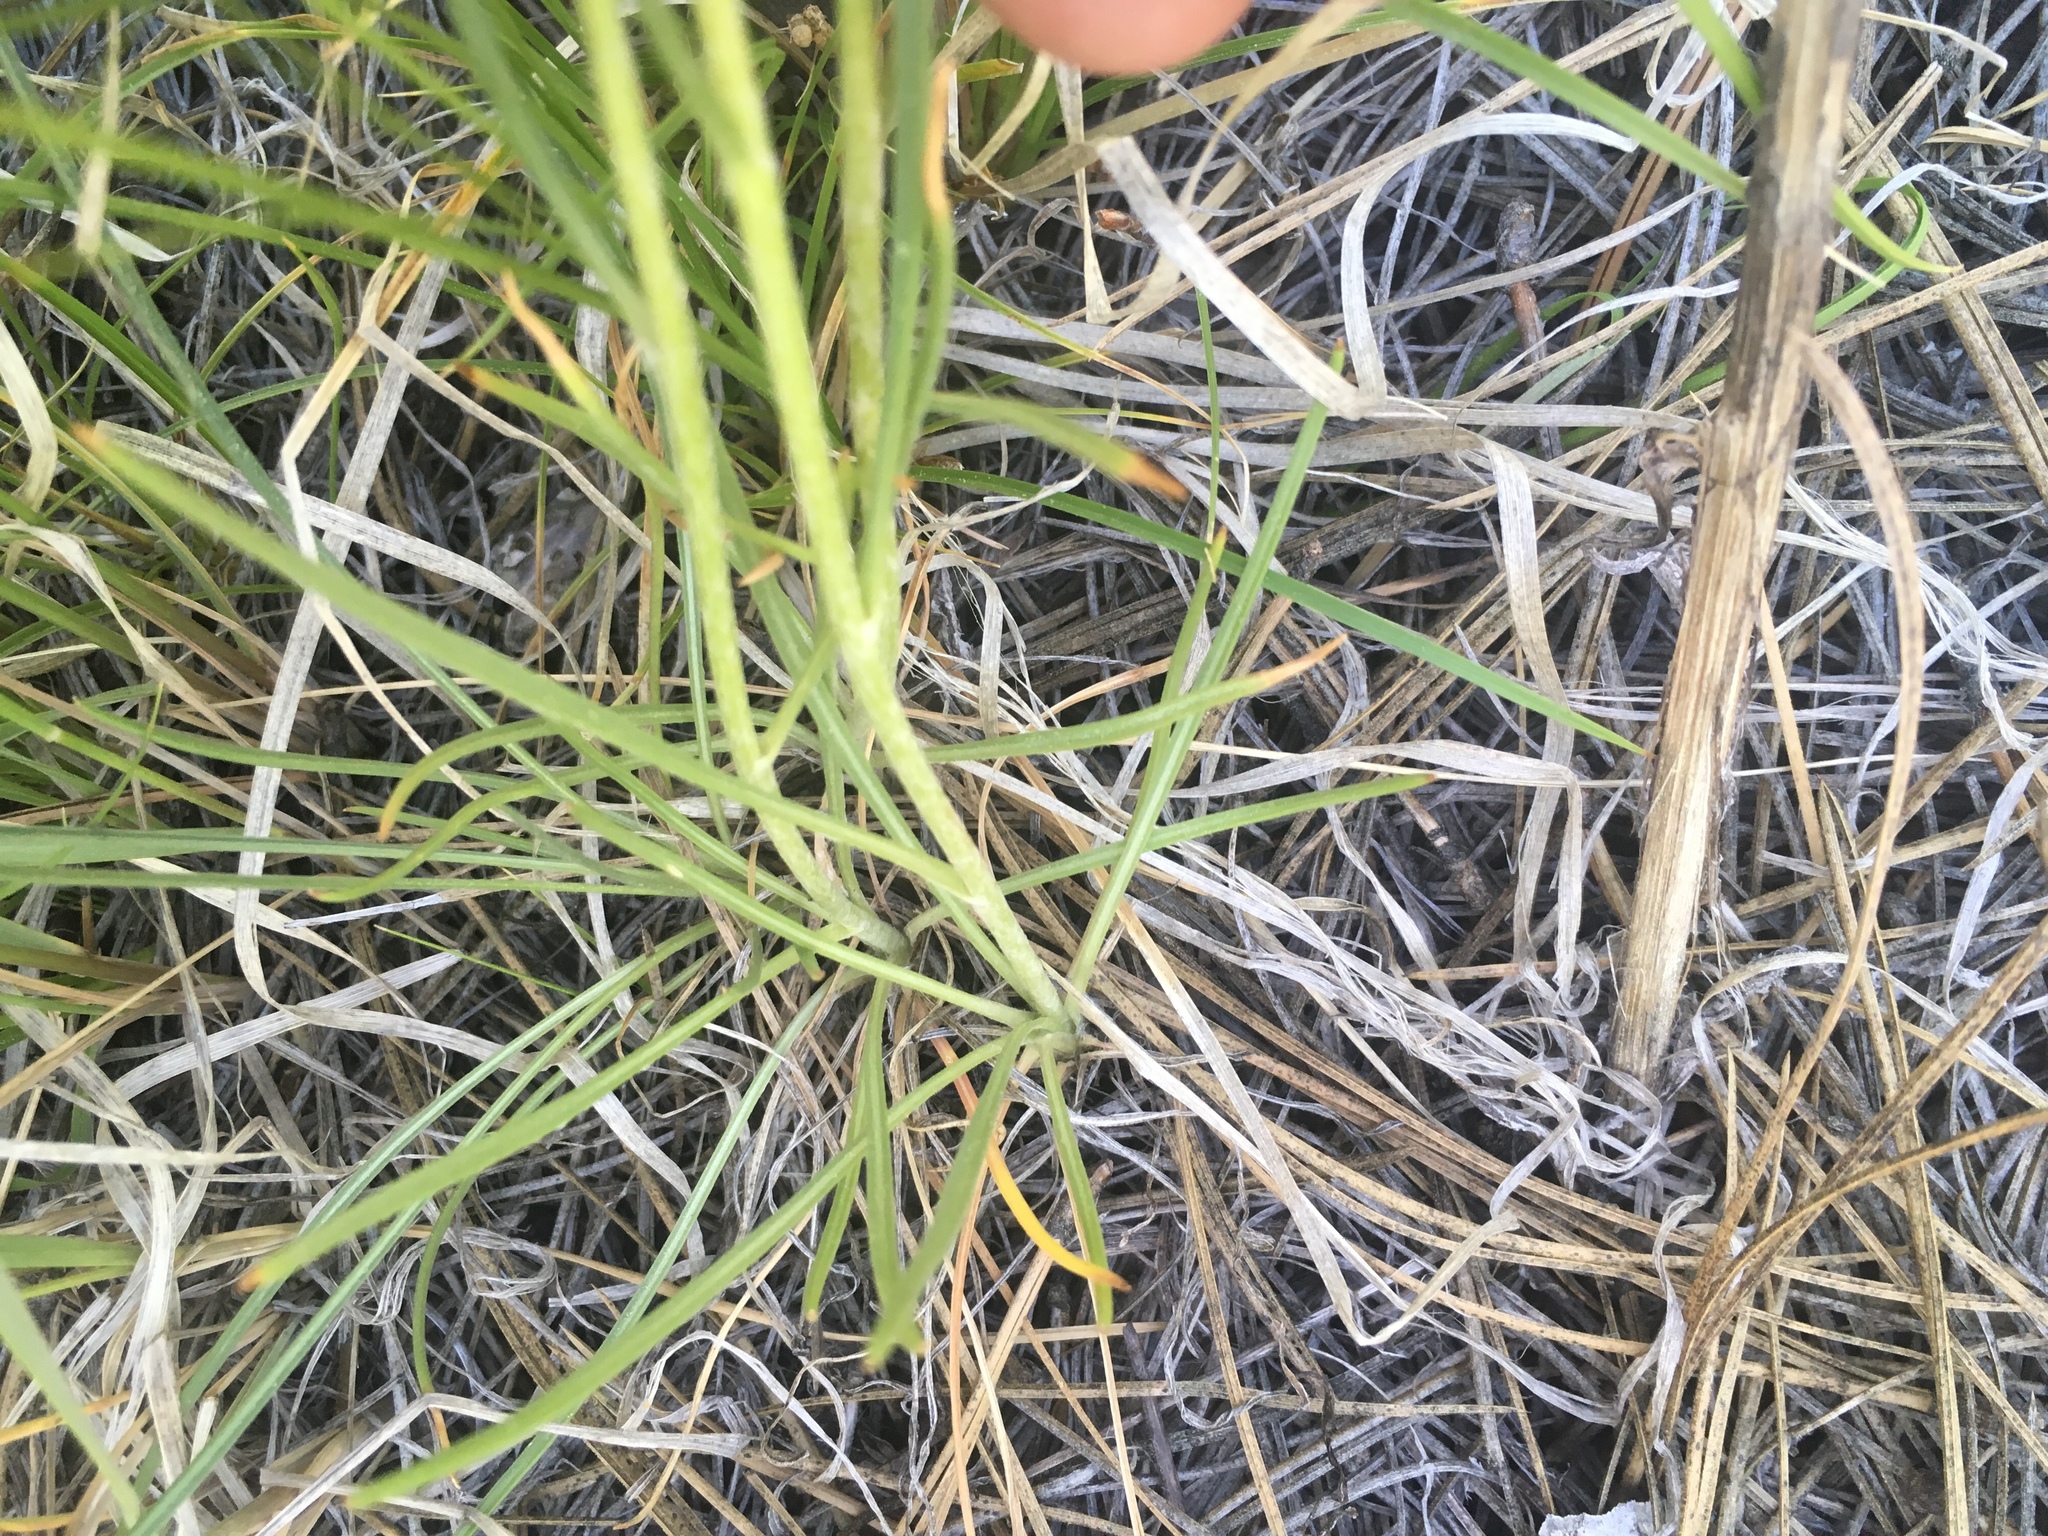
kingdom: Plantae
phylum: Tracheophyta
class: Magnoliopsida
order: Asterales
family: Asteraceae
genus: Hymenoxys
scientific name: Hymenoxys bigelovii
